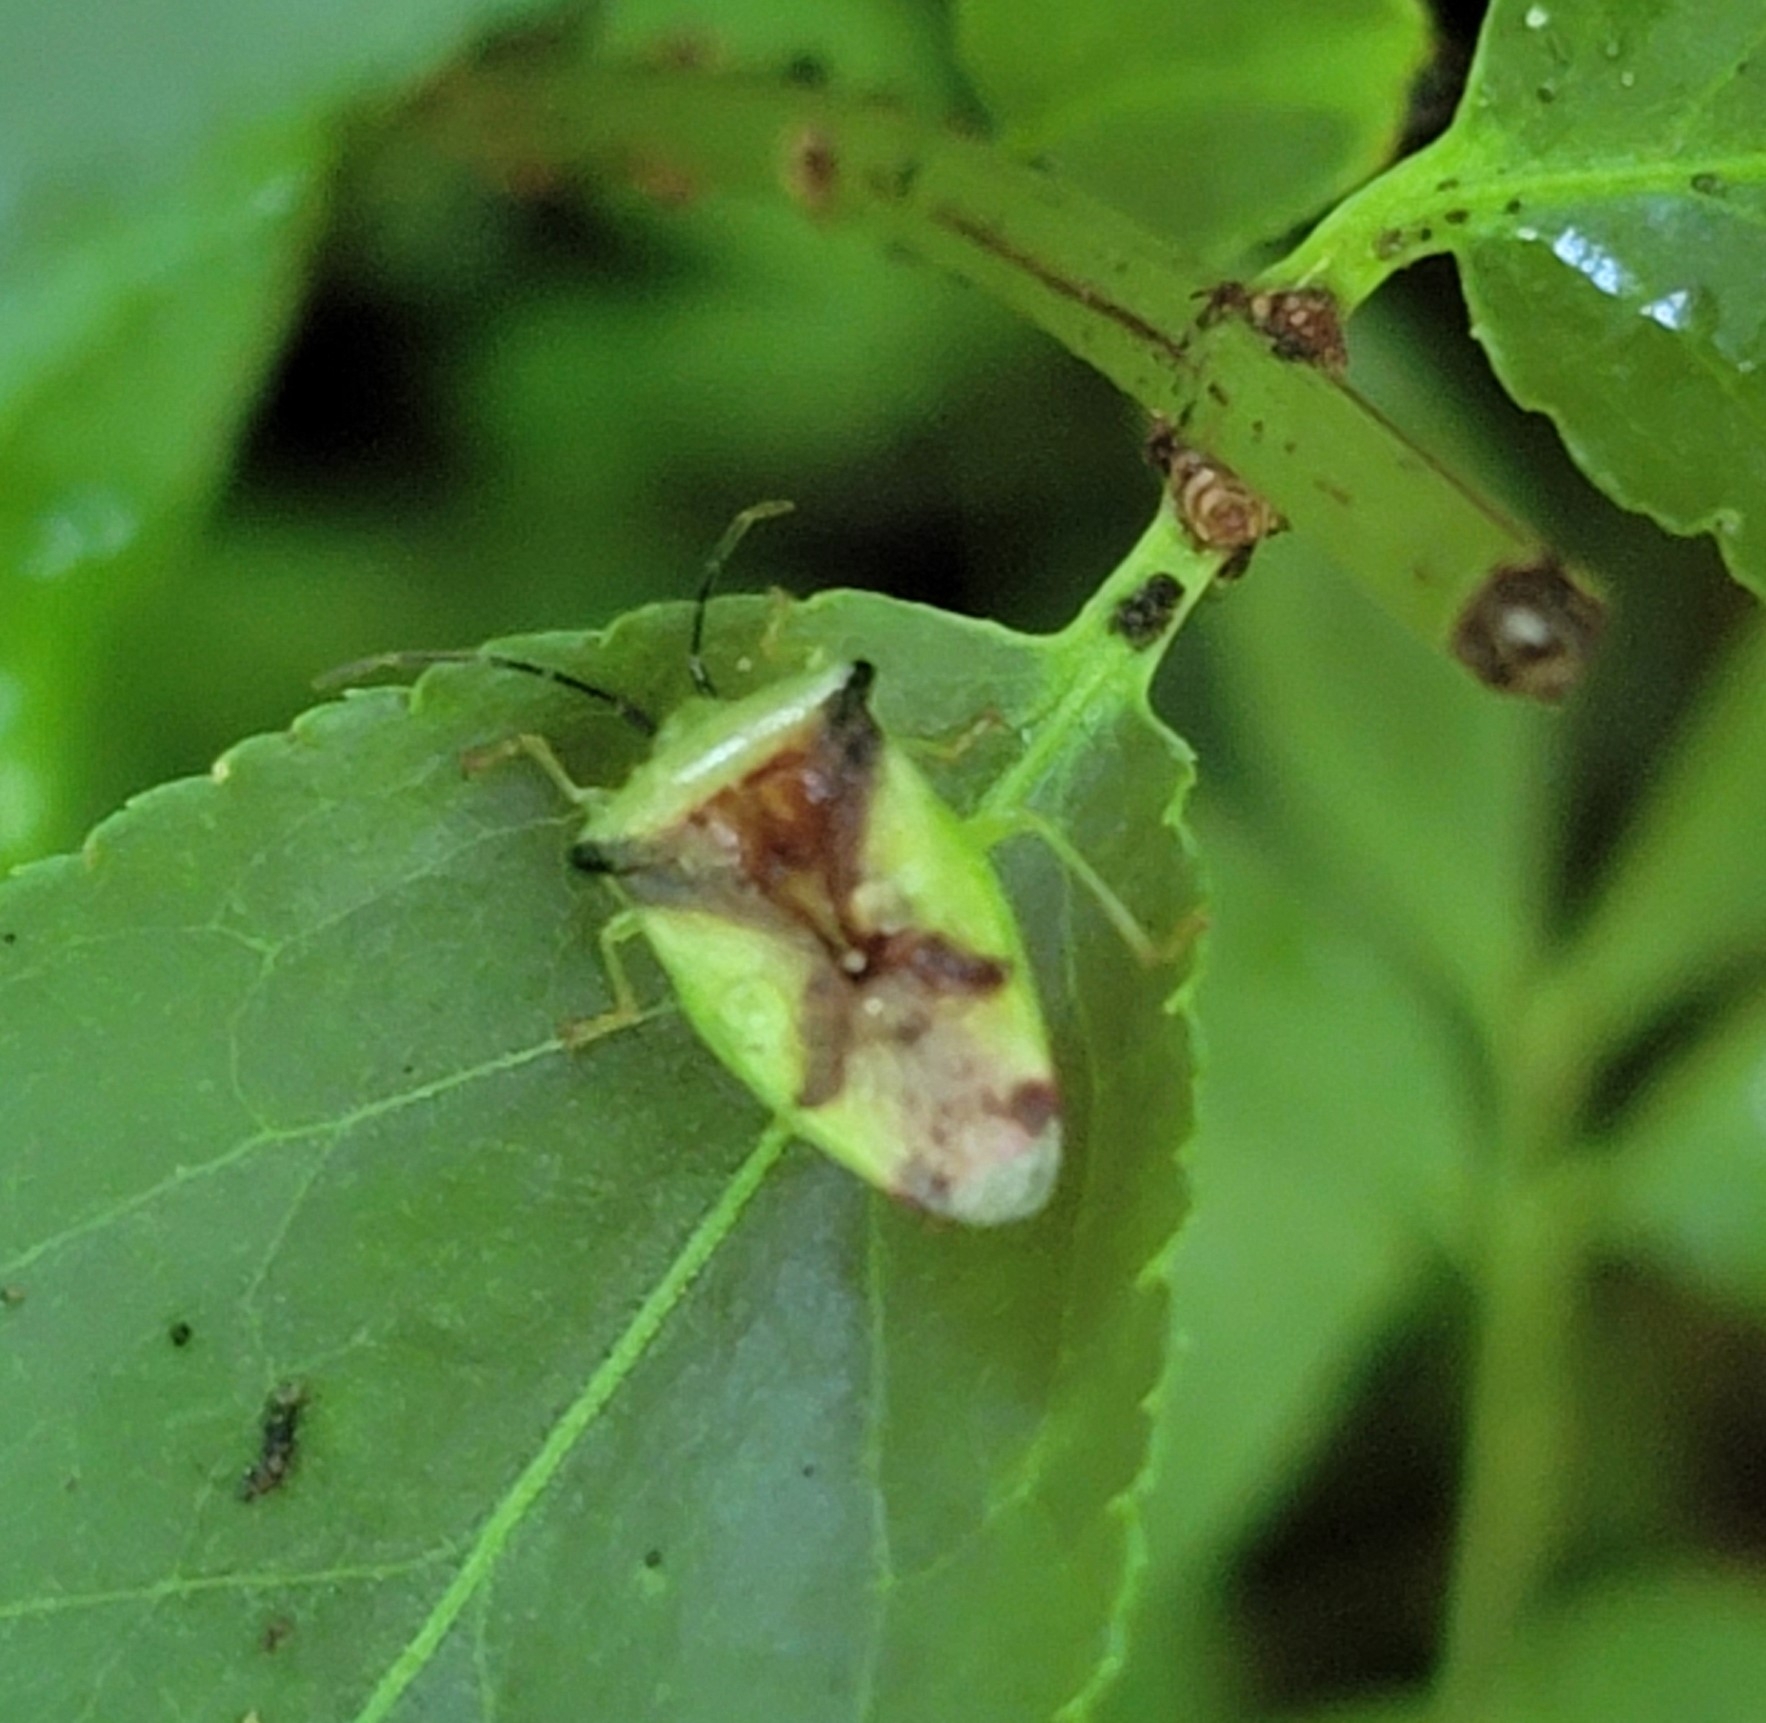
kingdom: Animalia
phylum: Arthropoda
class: Insecta
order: Hemiptera
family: Acanthosomatidae
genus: Elasmostethus
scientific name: Elasmostethus atricornis
